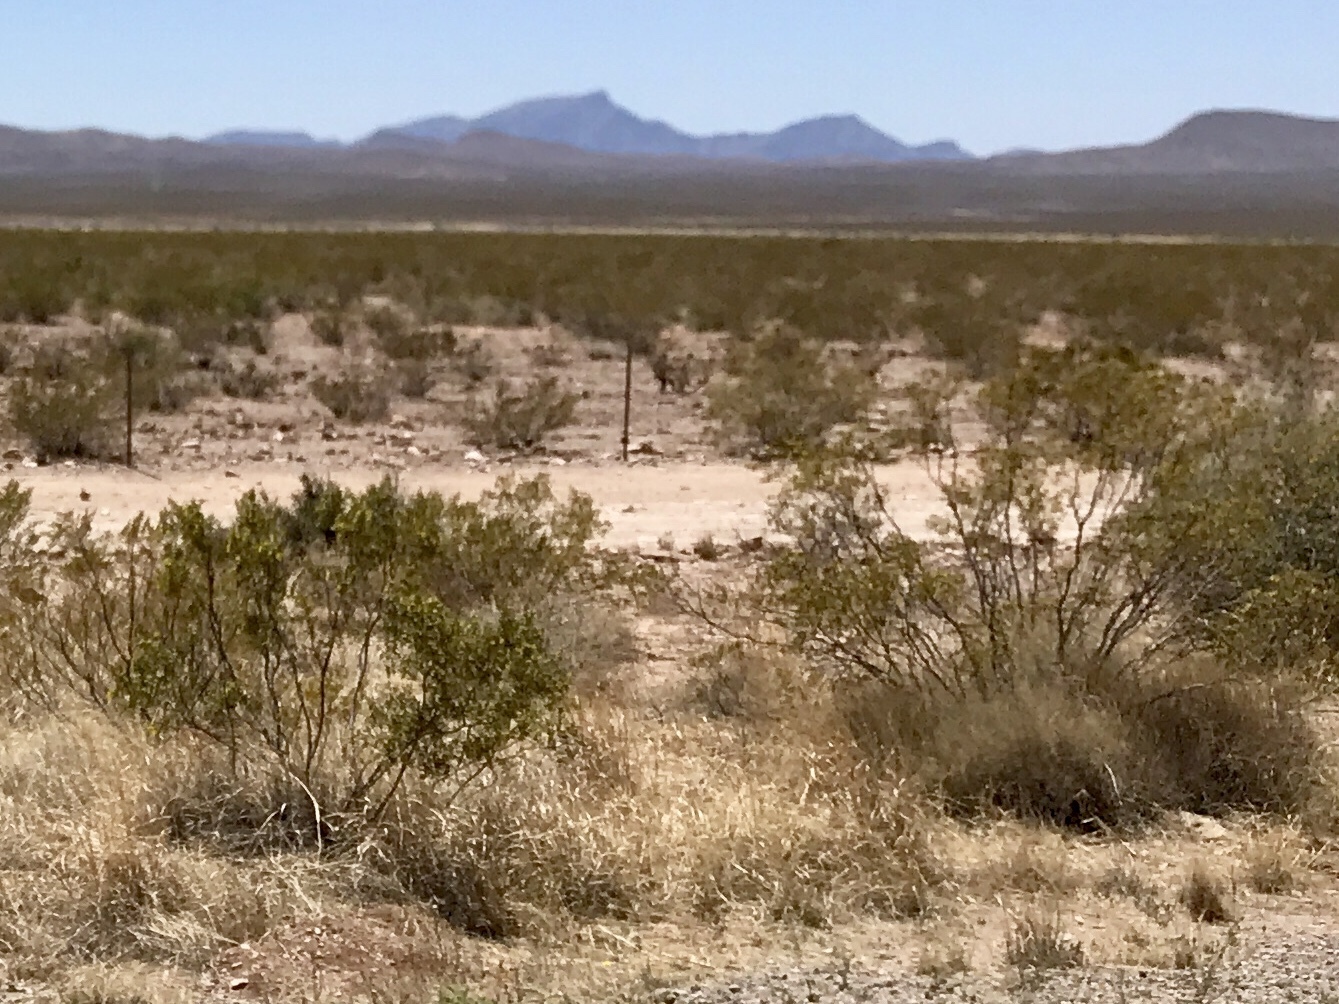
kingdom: Plantae
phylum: Tracheophyta
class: Magnoliopsida
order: Zygophyllales
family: Zygophyllaceae
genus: Larrea
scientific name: Larrea tridentata
